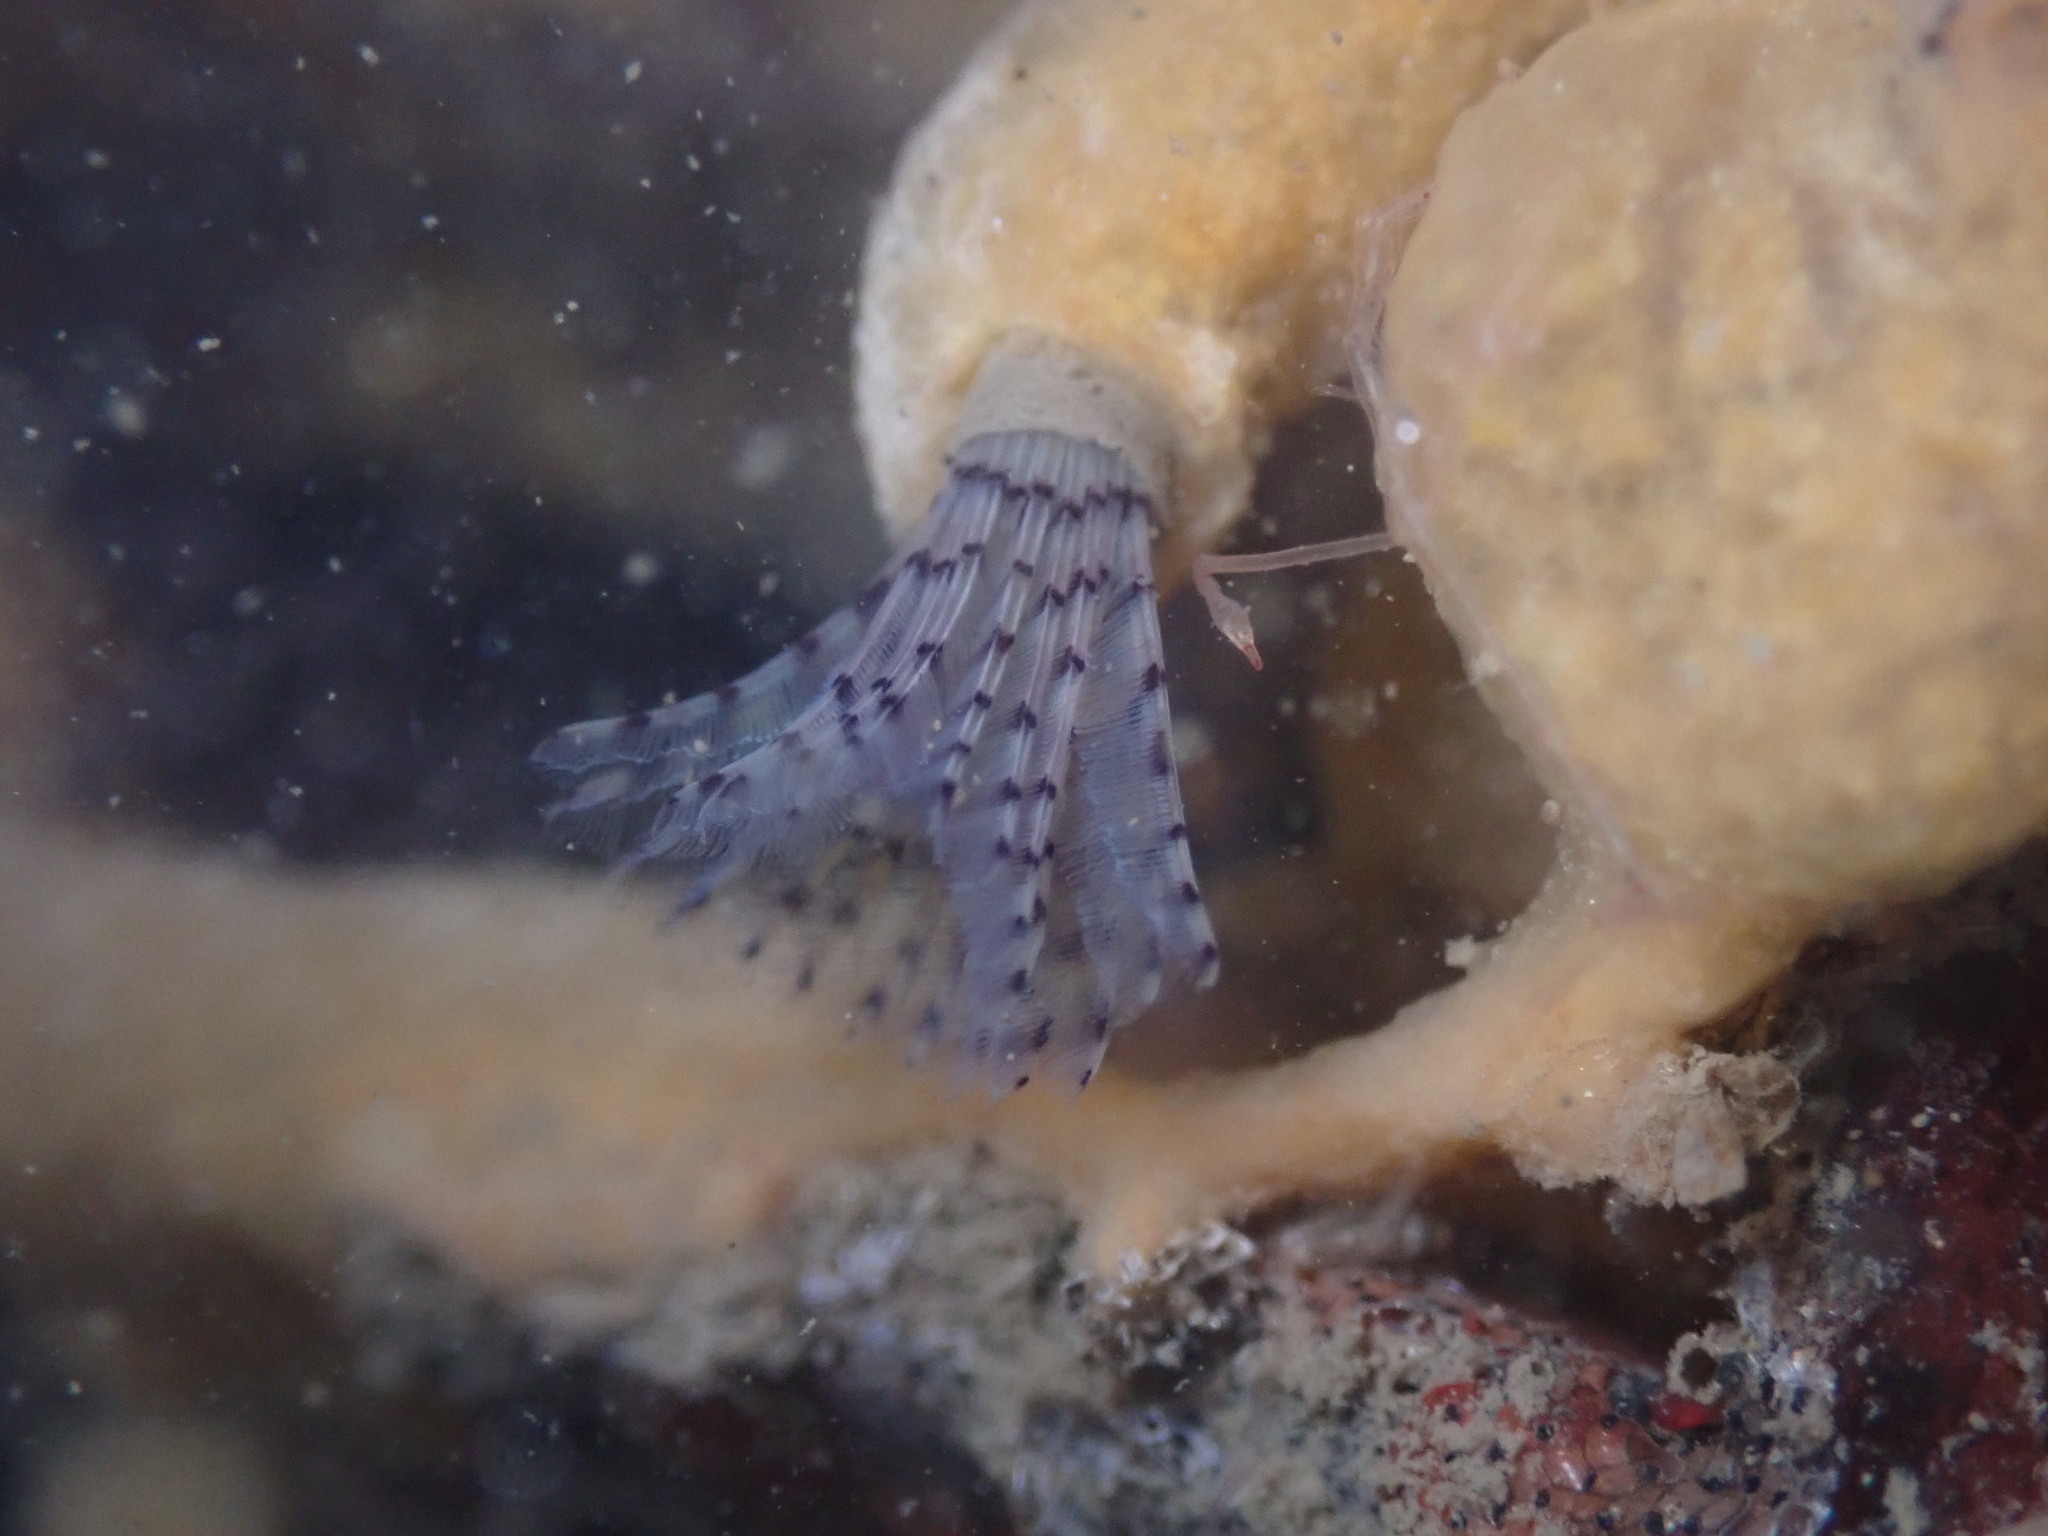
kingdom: Animalia
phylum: Annelida
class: Polychaeta
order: Sabellida
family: Sabellidae
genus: Bispira
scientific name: Bispira pacifica
